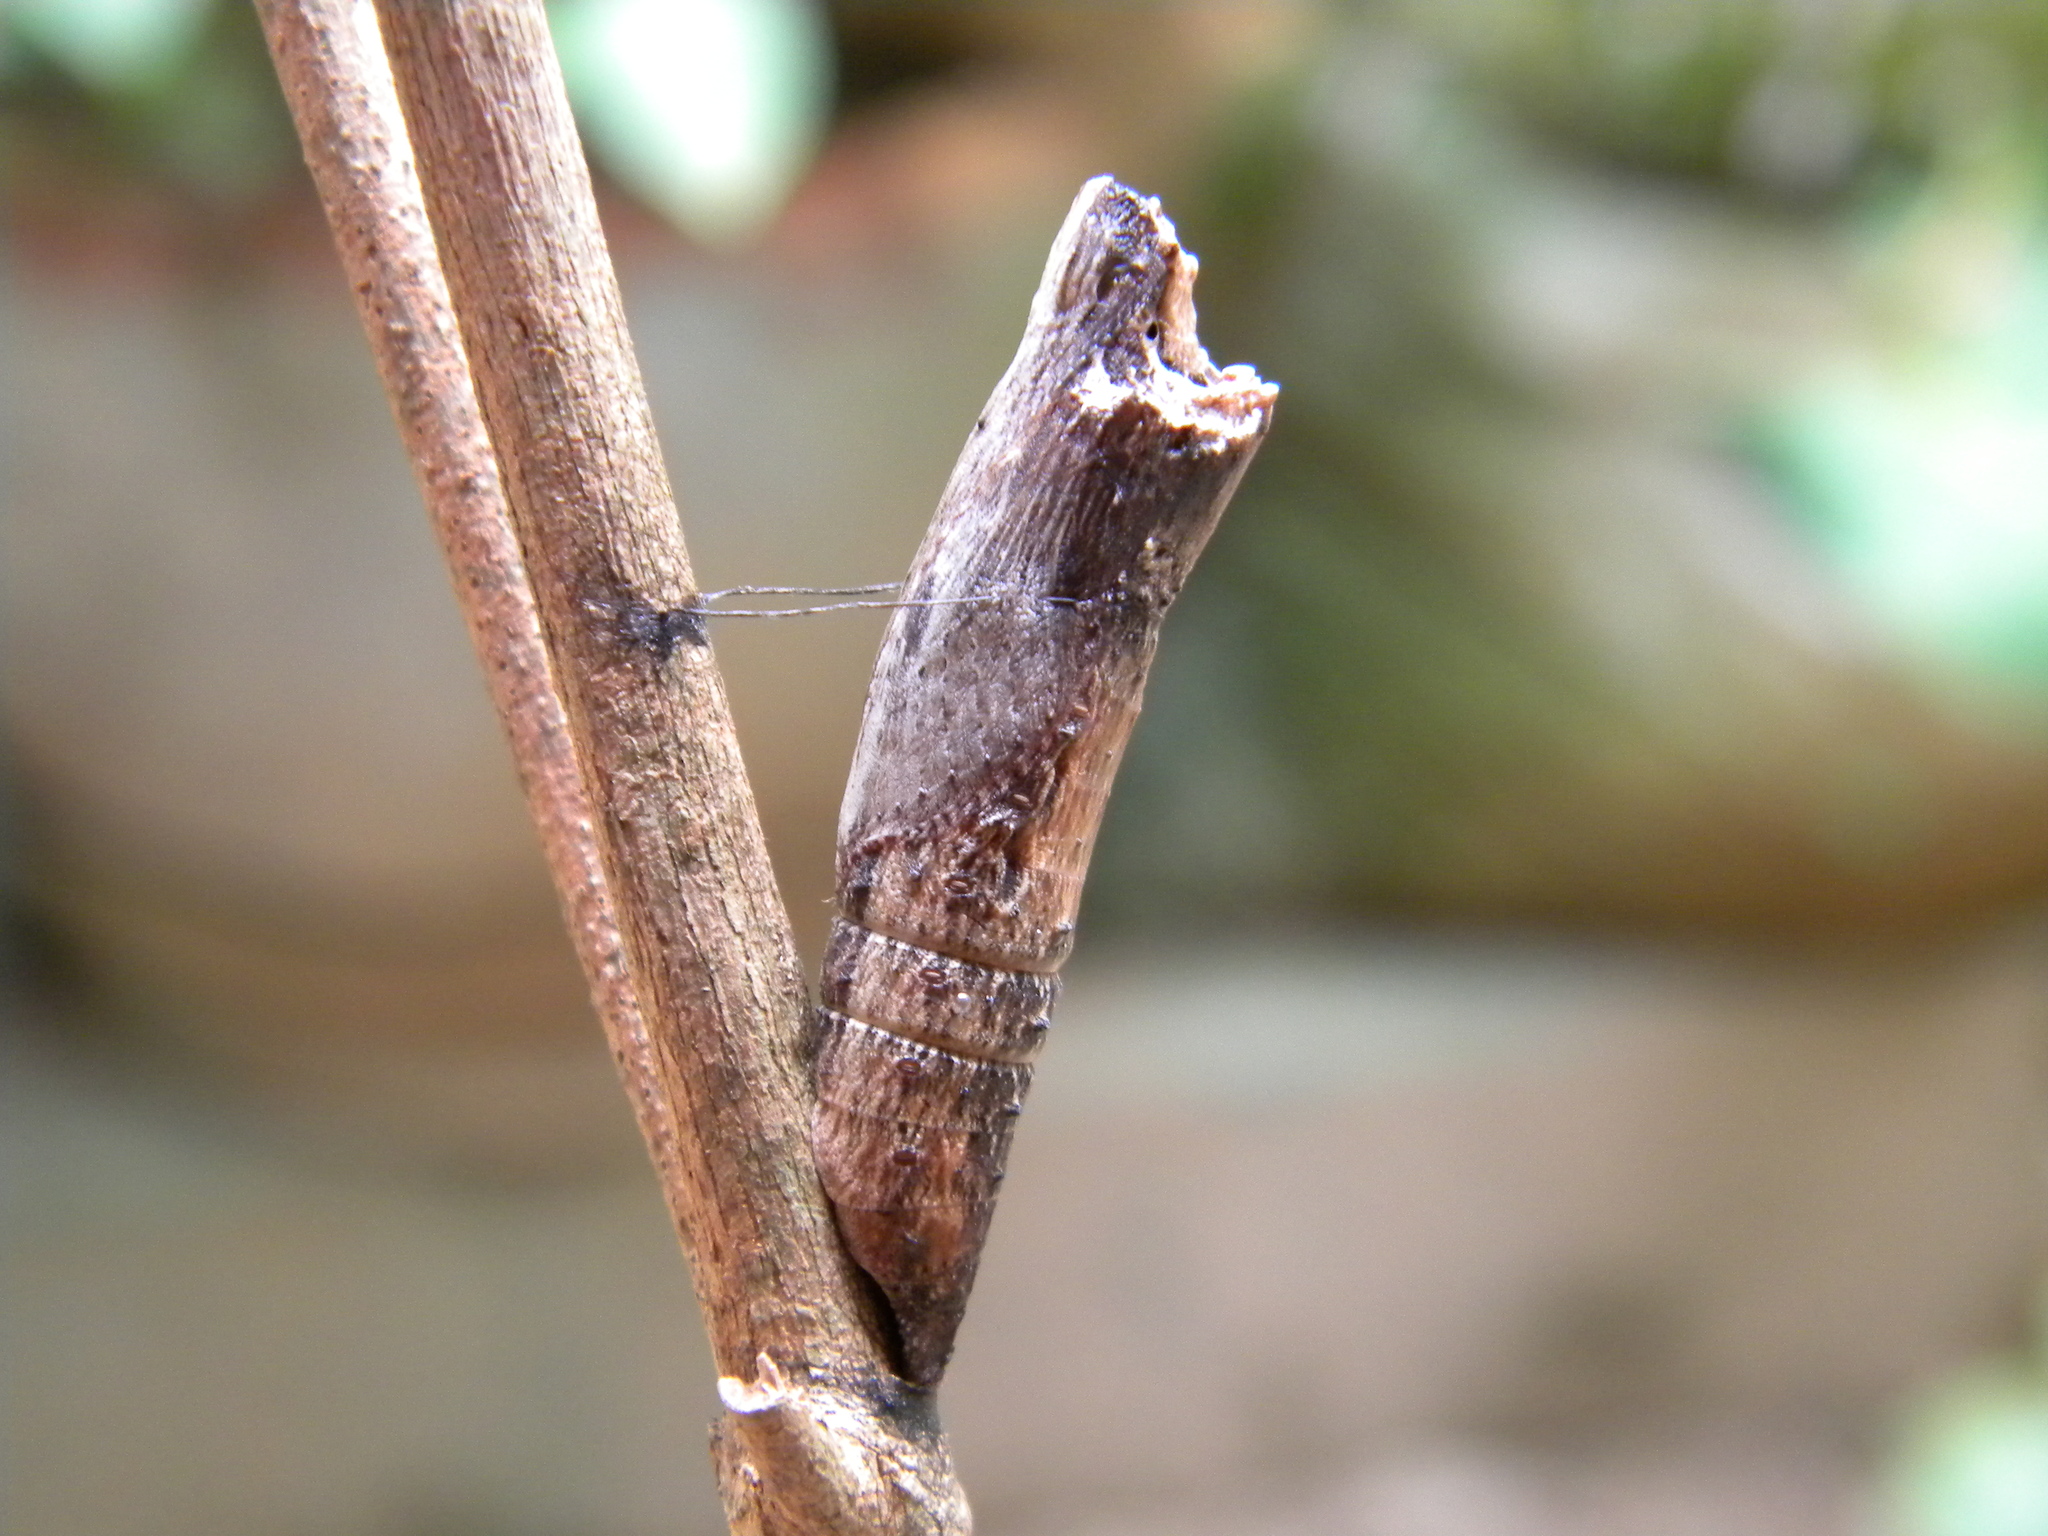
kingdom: Animalia
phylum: Arthropoda
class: Insecta
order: Lepidoptera
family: Papilionidae
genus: Chilasa
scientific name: Chilasa clytia
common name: Common mime
